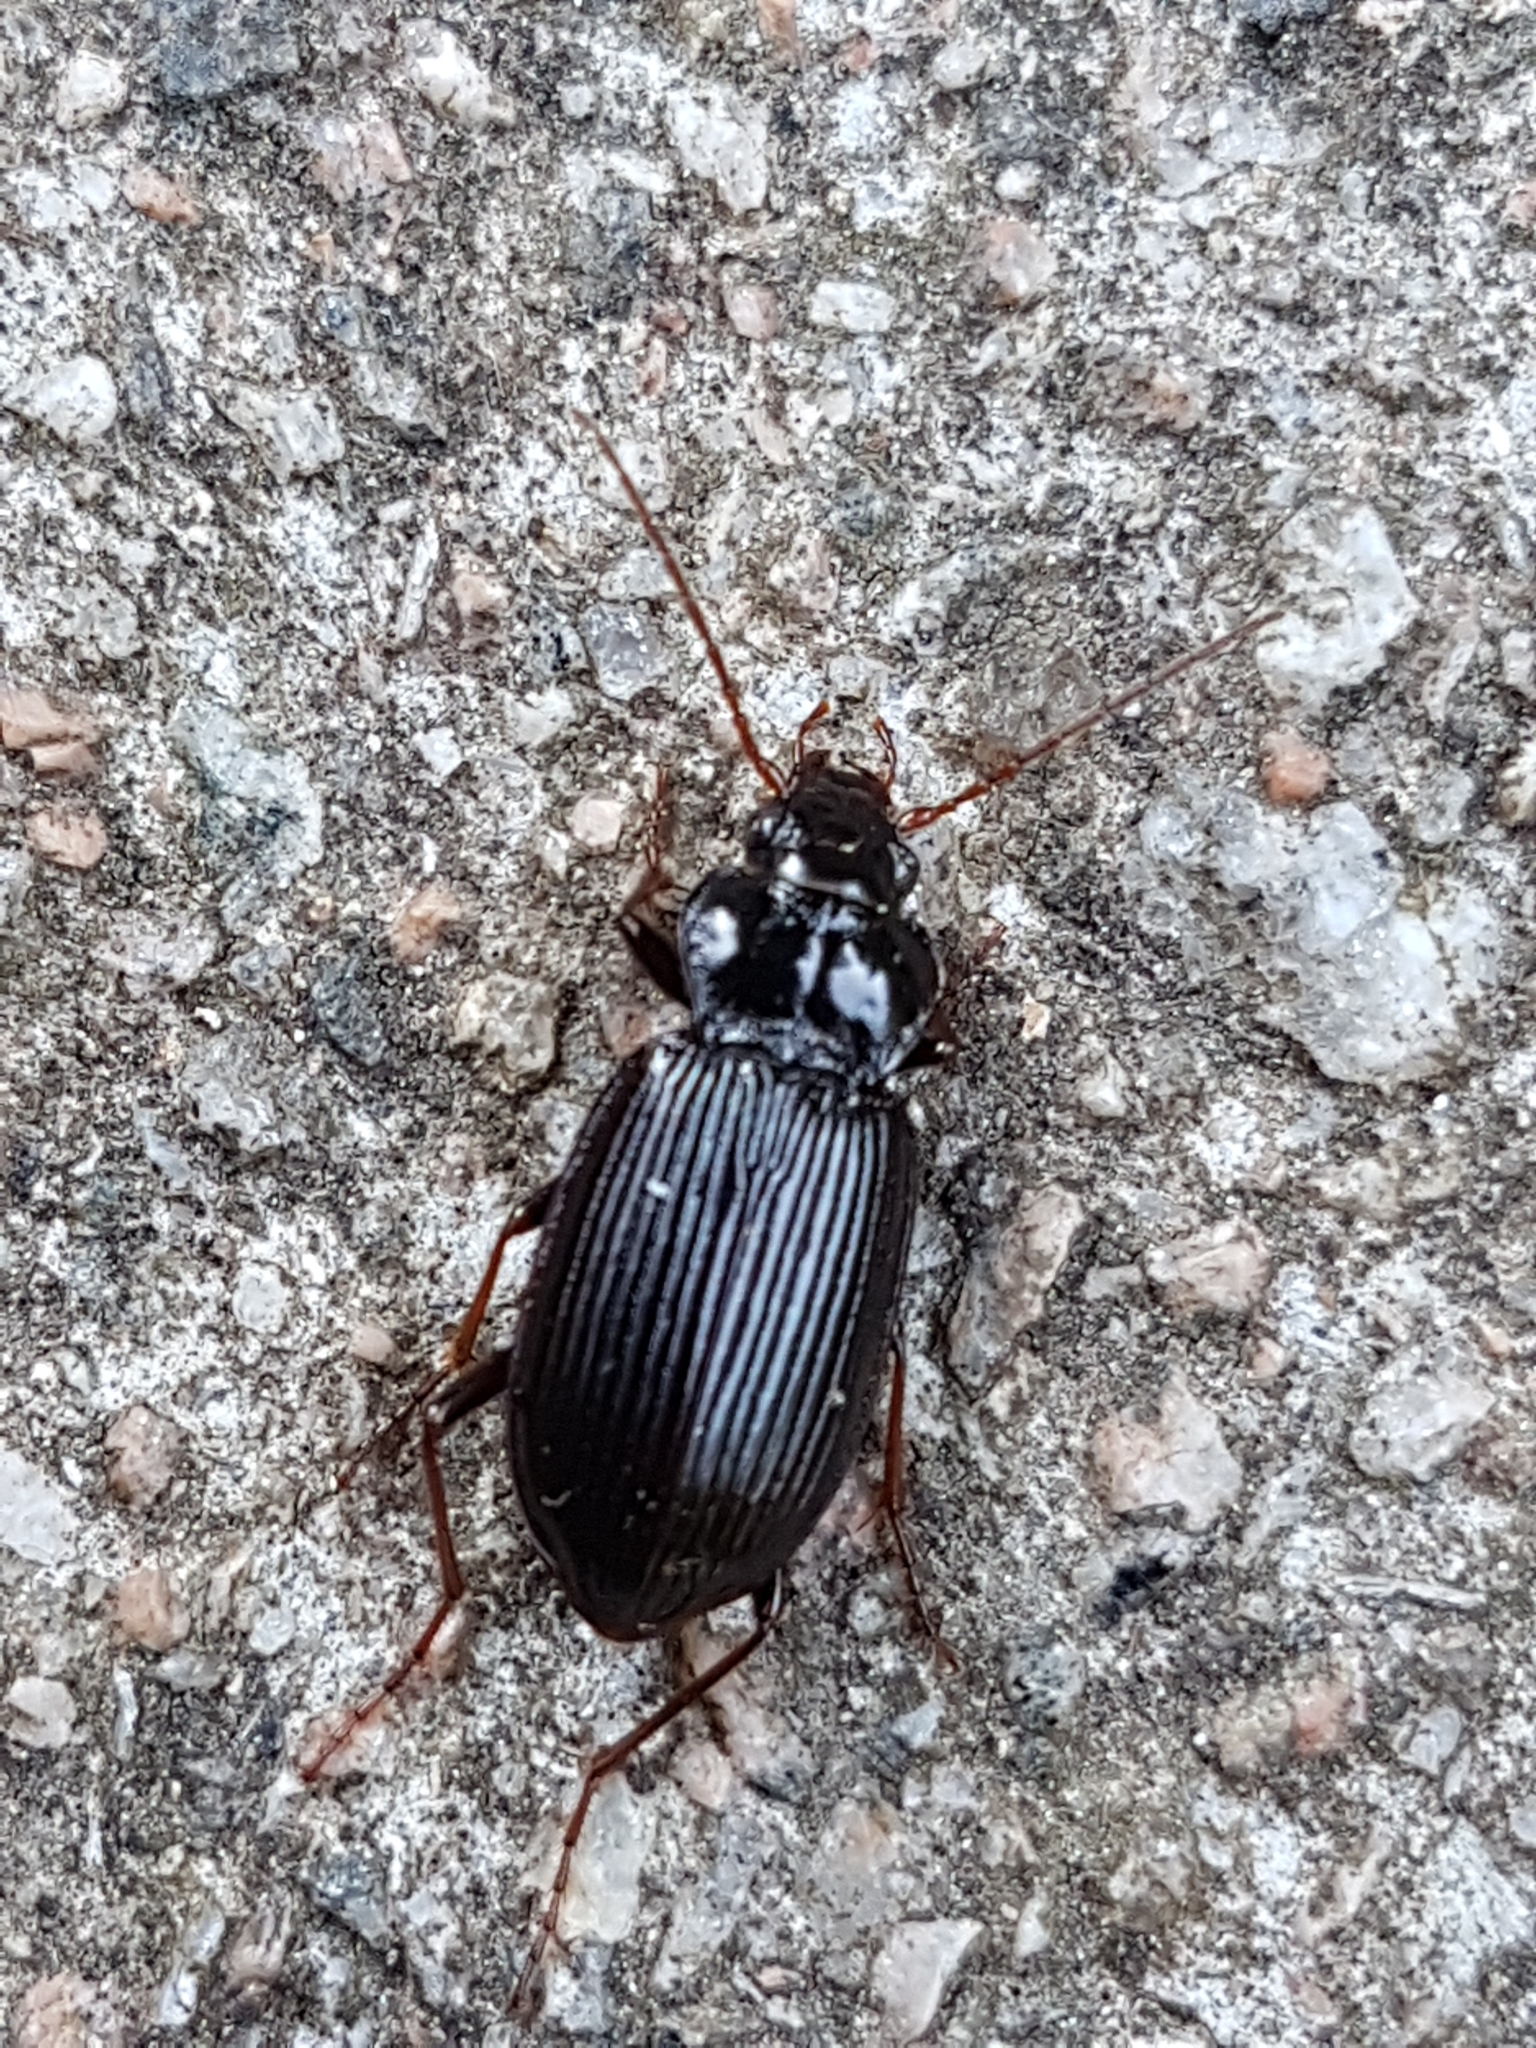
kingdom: Animalia
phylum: Arthropoda
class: Insecta
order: Coleoptera
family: Carabidae
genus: Nebria
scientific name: Nebria brevicollis
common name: Short-necked gazelle beetle
